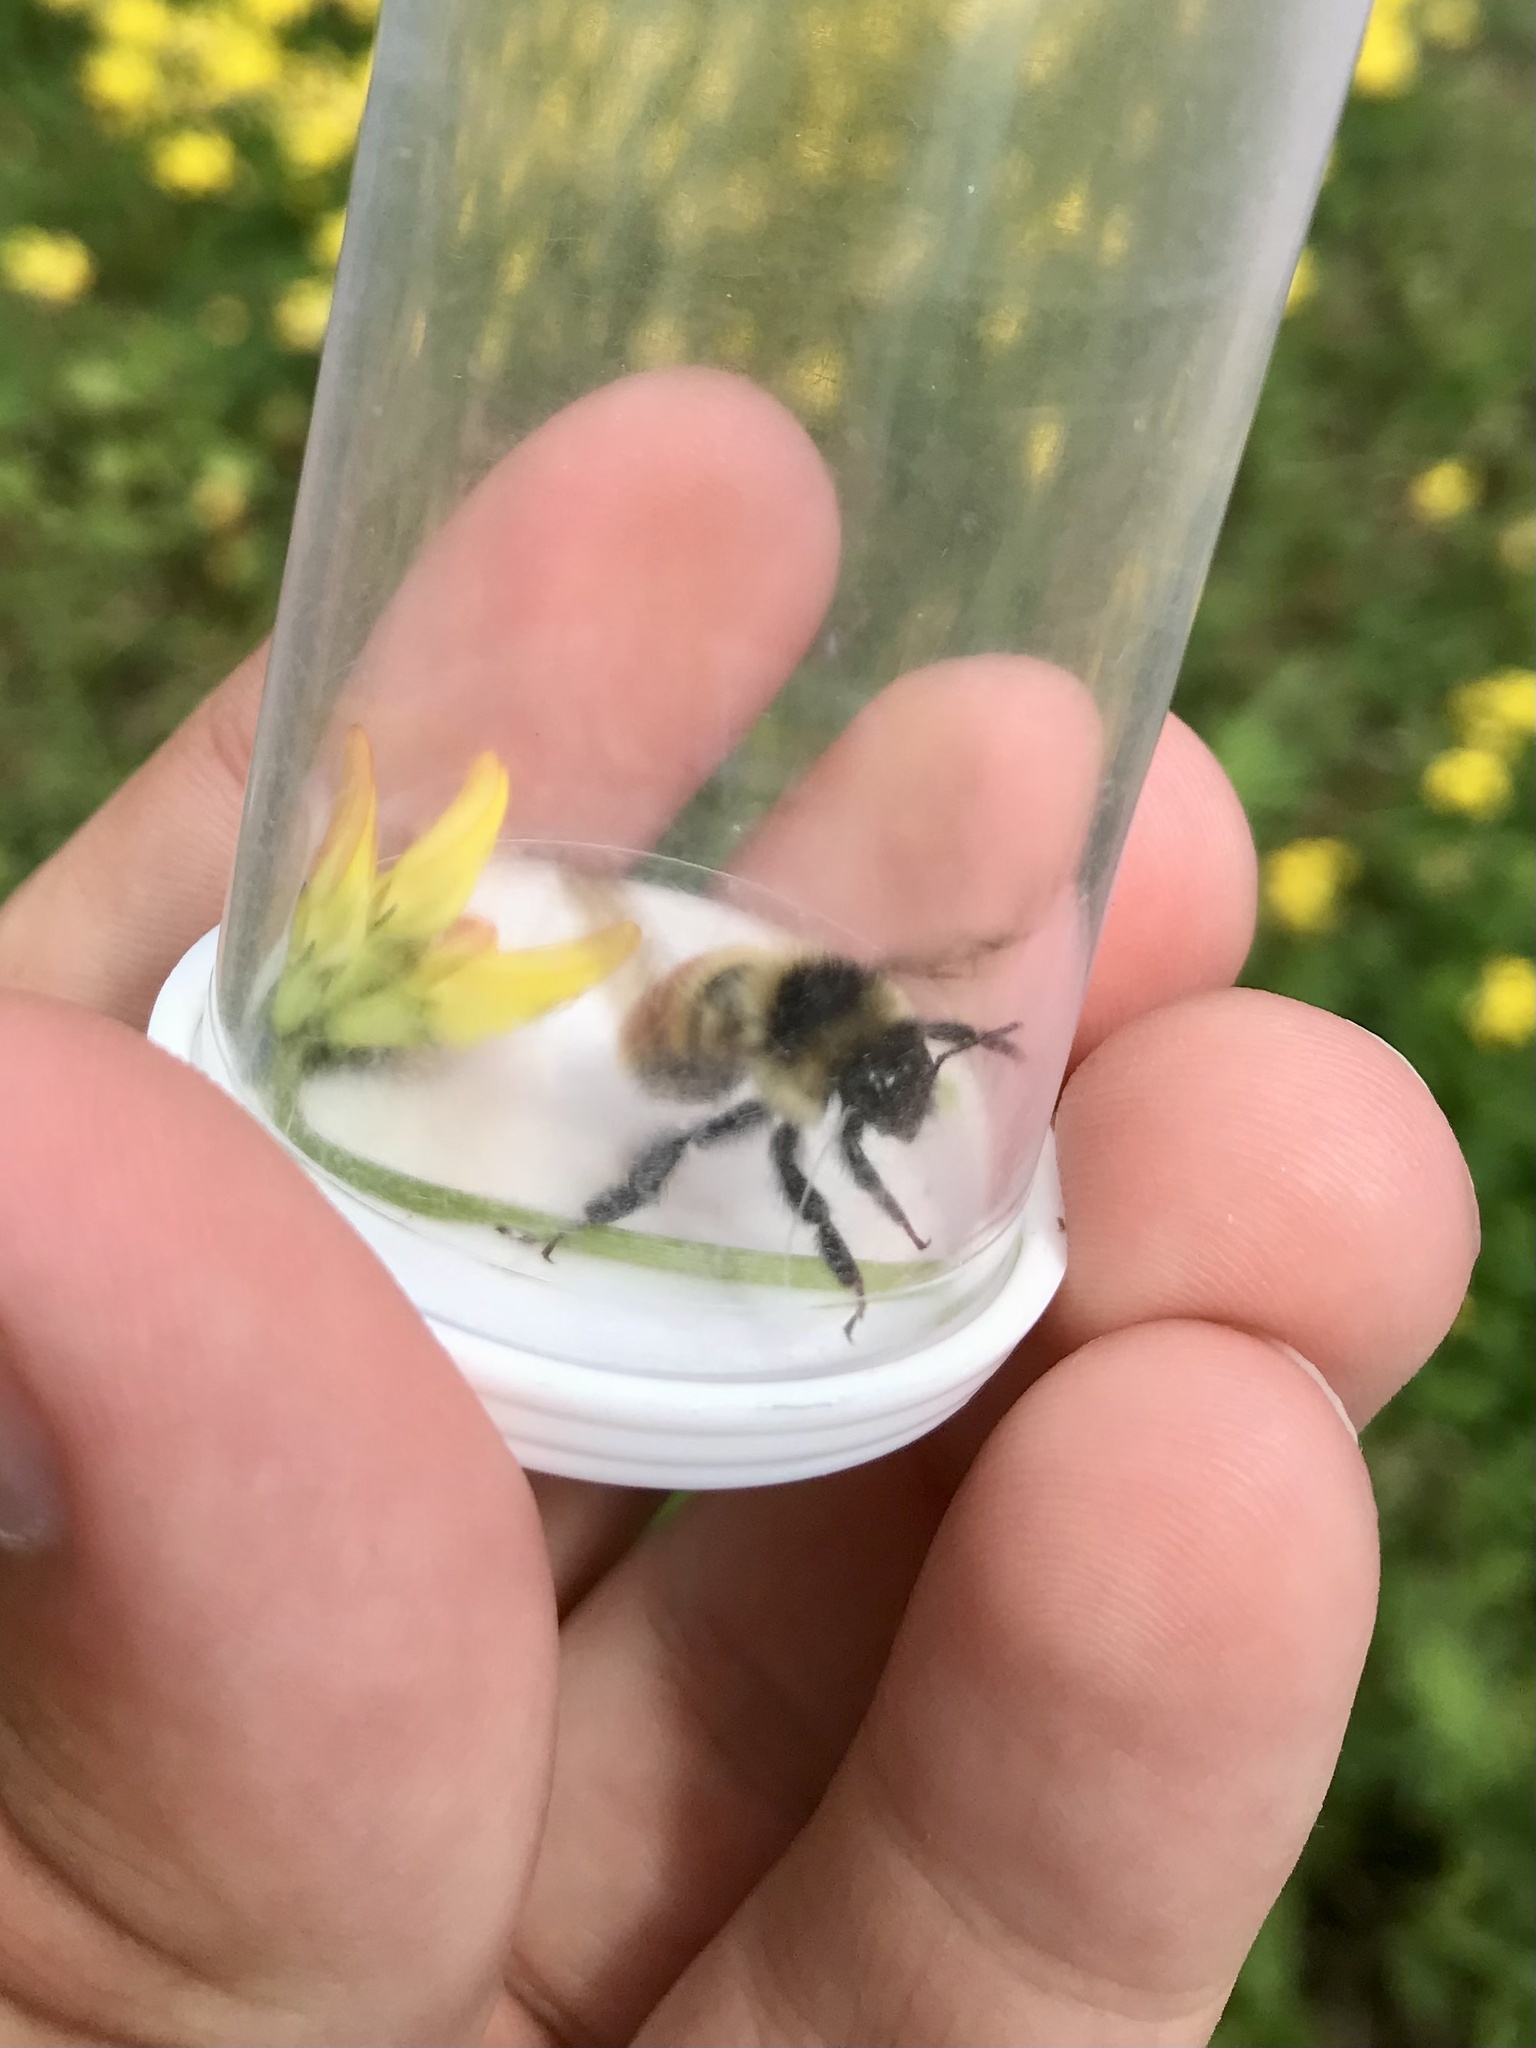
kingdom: Animalia
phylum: Arthropoda
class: Insecta
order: Hymenoptera
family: Apidae
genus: Bombus
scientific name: Bombus rufocinctus
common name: Red-belted bumble bee
